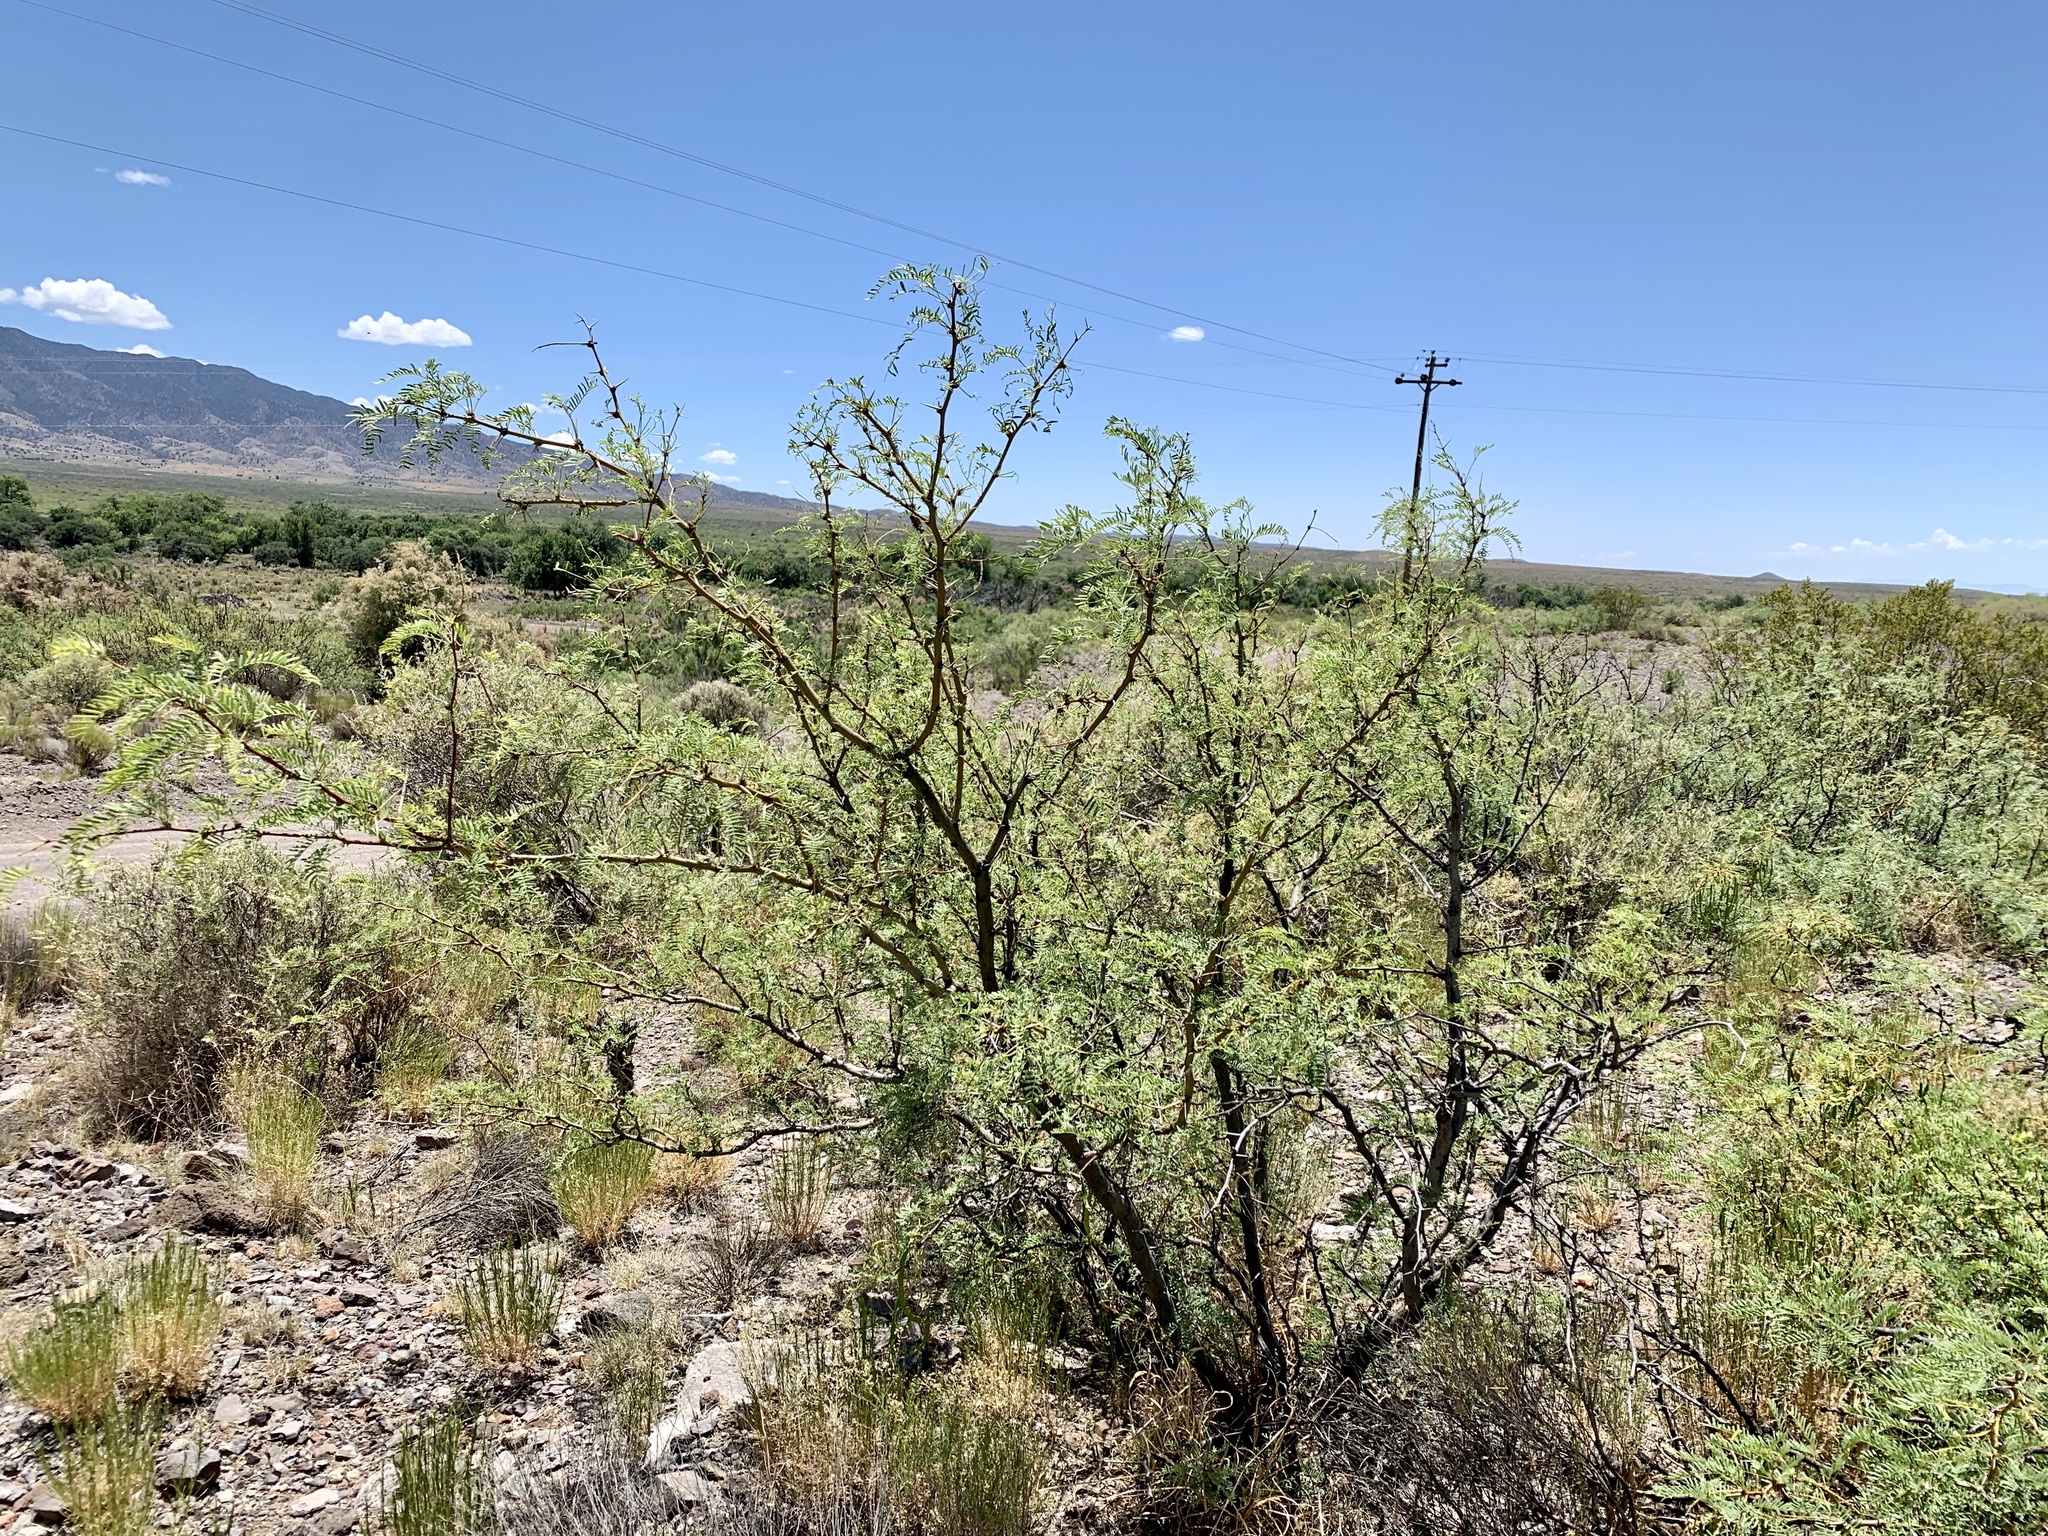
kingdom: Plantae
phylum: Tracheophyta
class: Magnoliopsida
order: Fabales
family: Fabaceae
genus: Prosopis
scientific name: Prosopis glandulosa
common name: Honey mesquite
